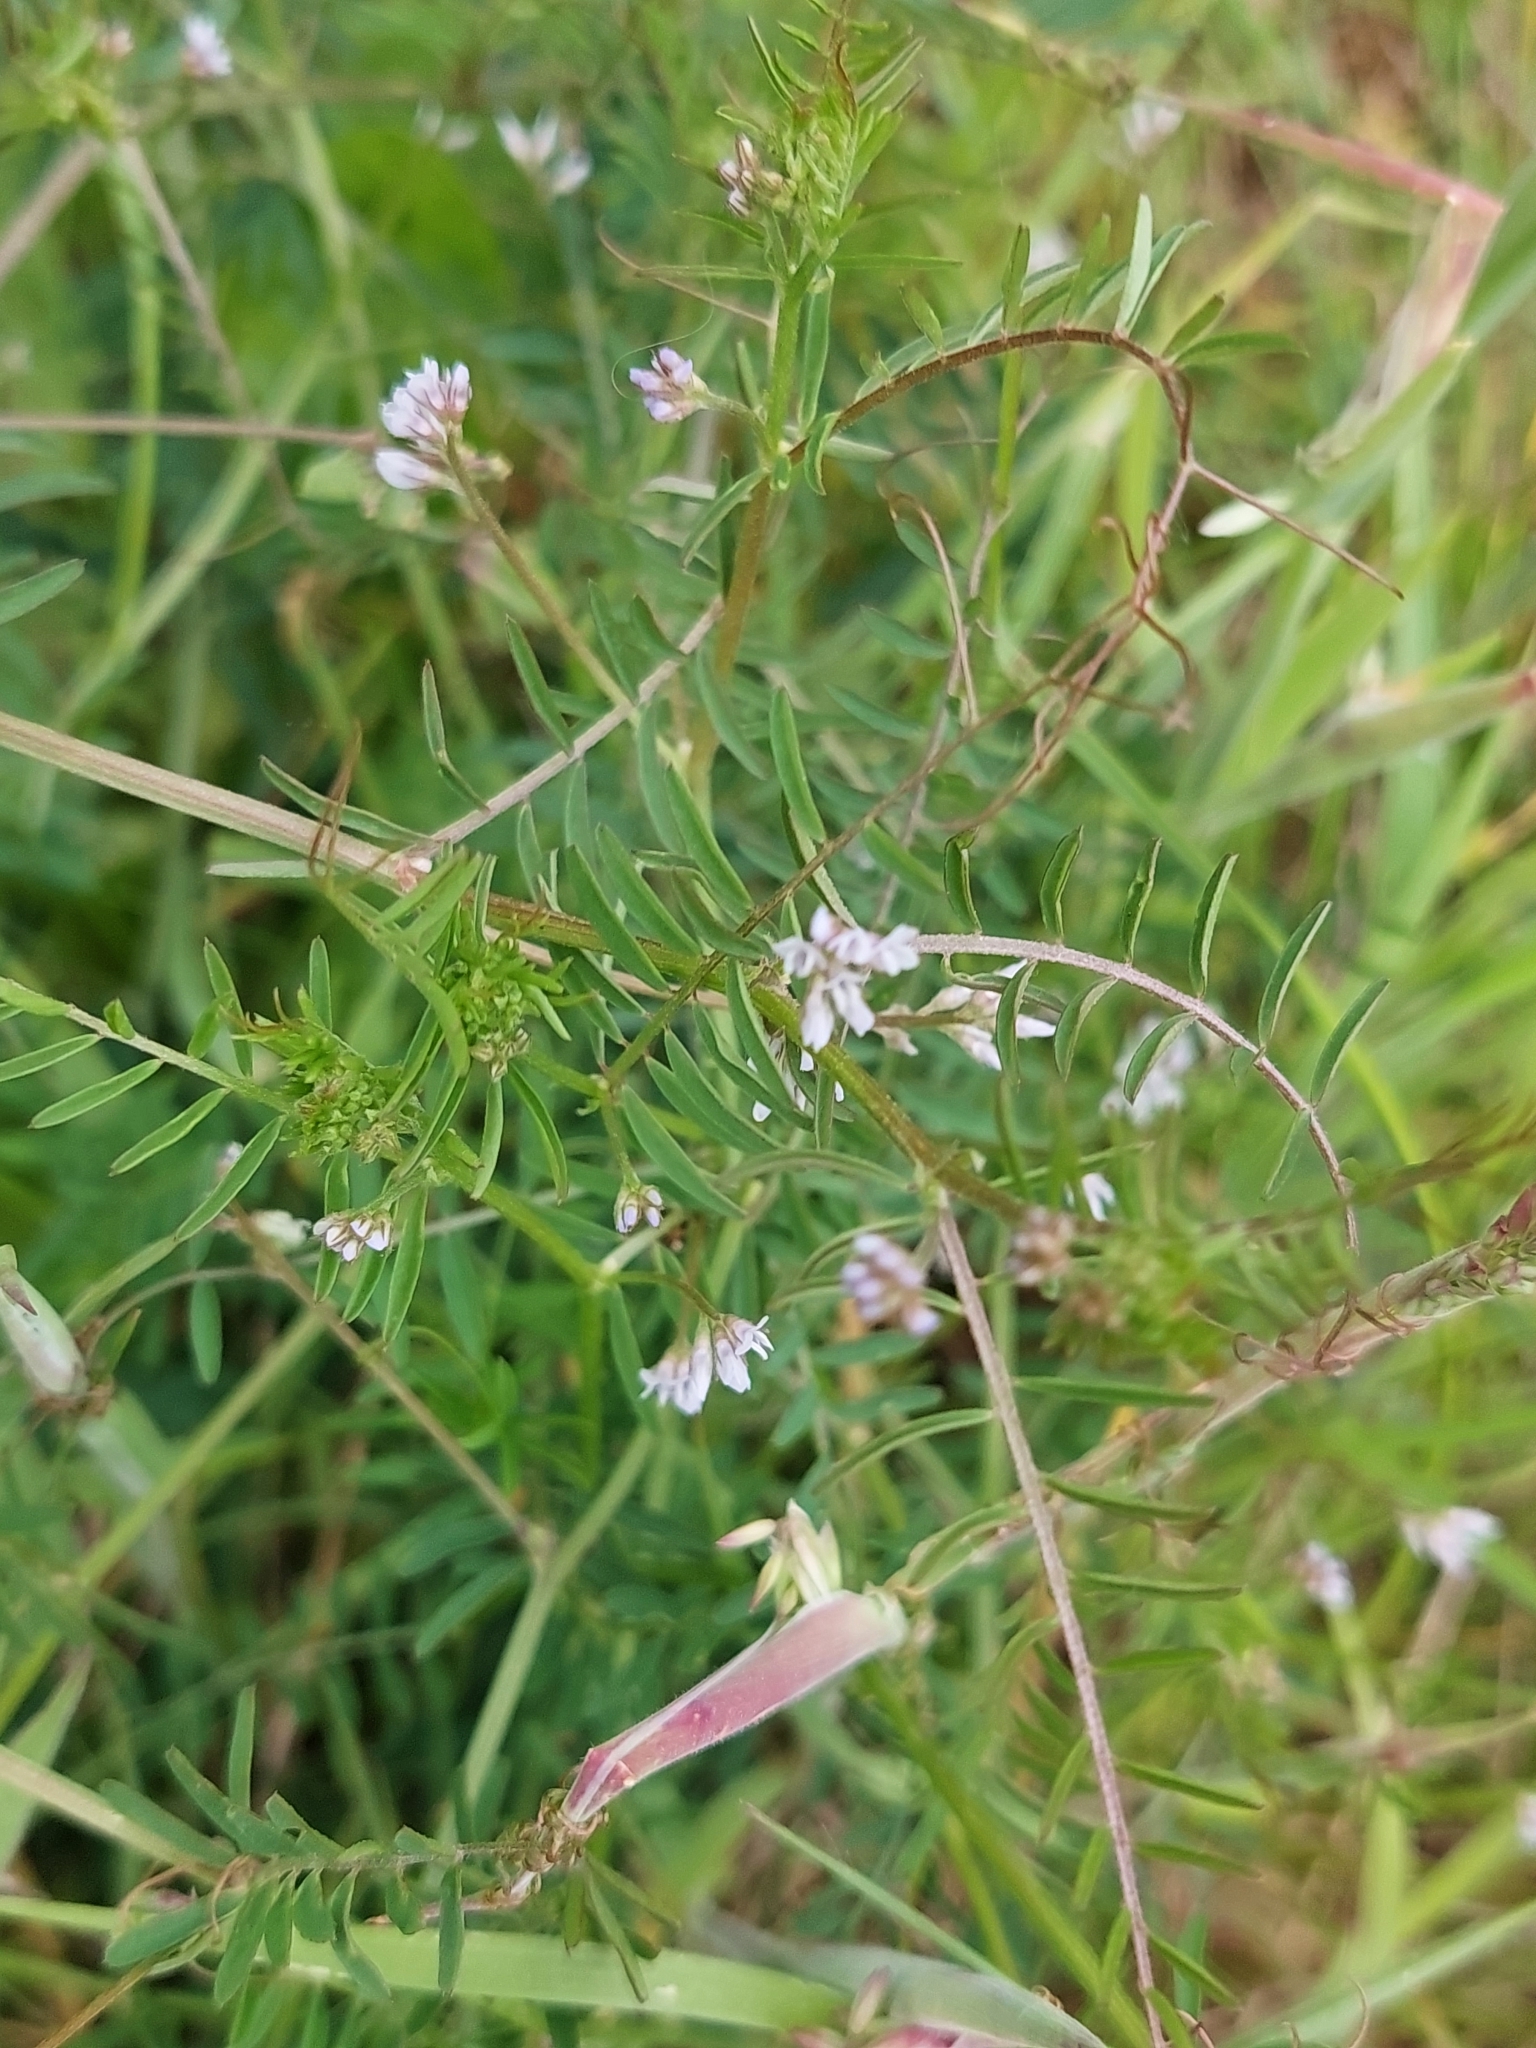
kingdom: Plantae
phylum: Tracheophyta
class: Magnoliopsida
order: Fabales
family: Fabaceae
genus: Vicia
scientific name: Vicia hirsuta
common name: Tiny vetch
